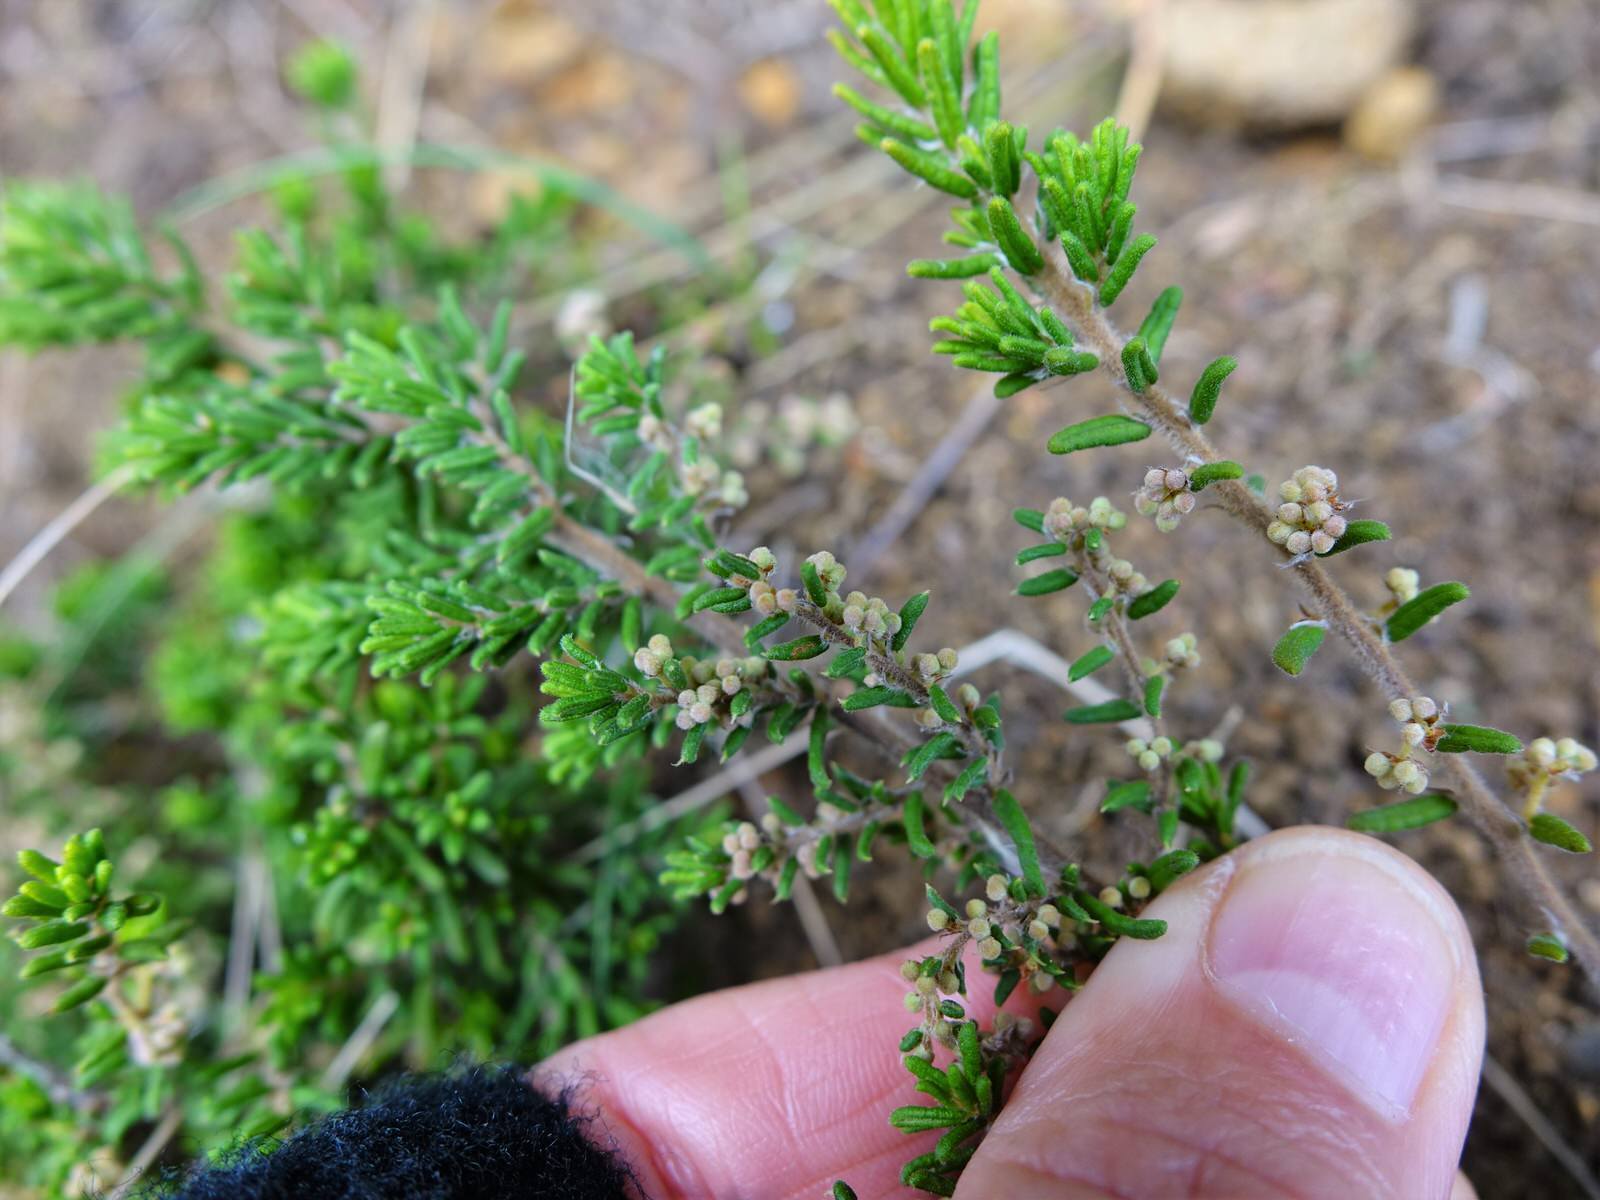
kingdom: Plantae
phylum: Tracheophyta
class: Magnoliopsida
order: Rosales
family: Rhamnaceae
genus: Pomaderris
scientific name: Pomaderris amoena
